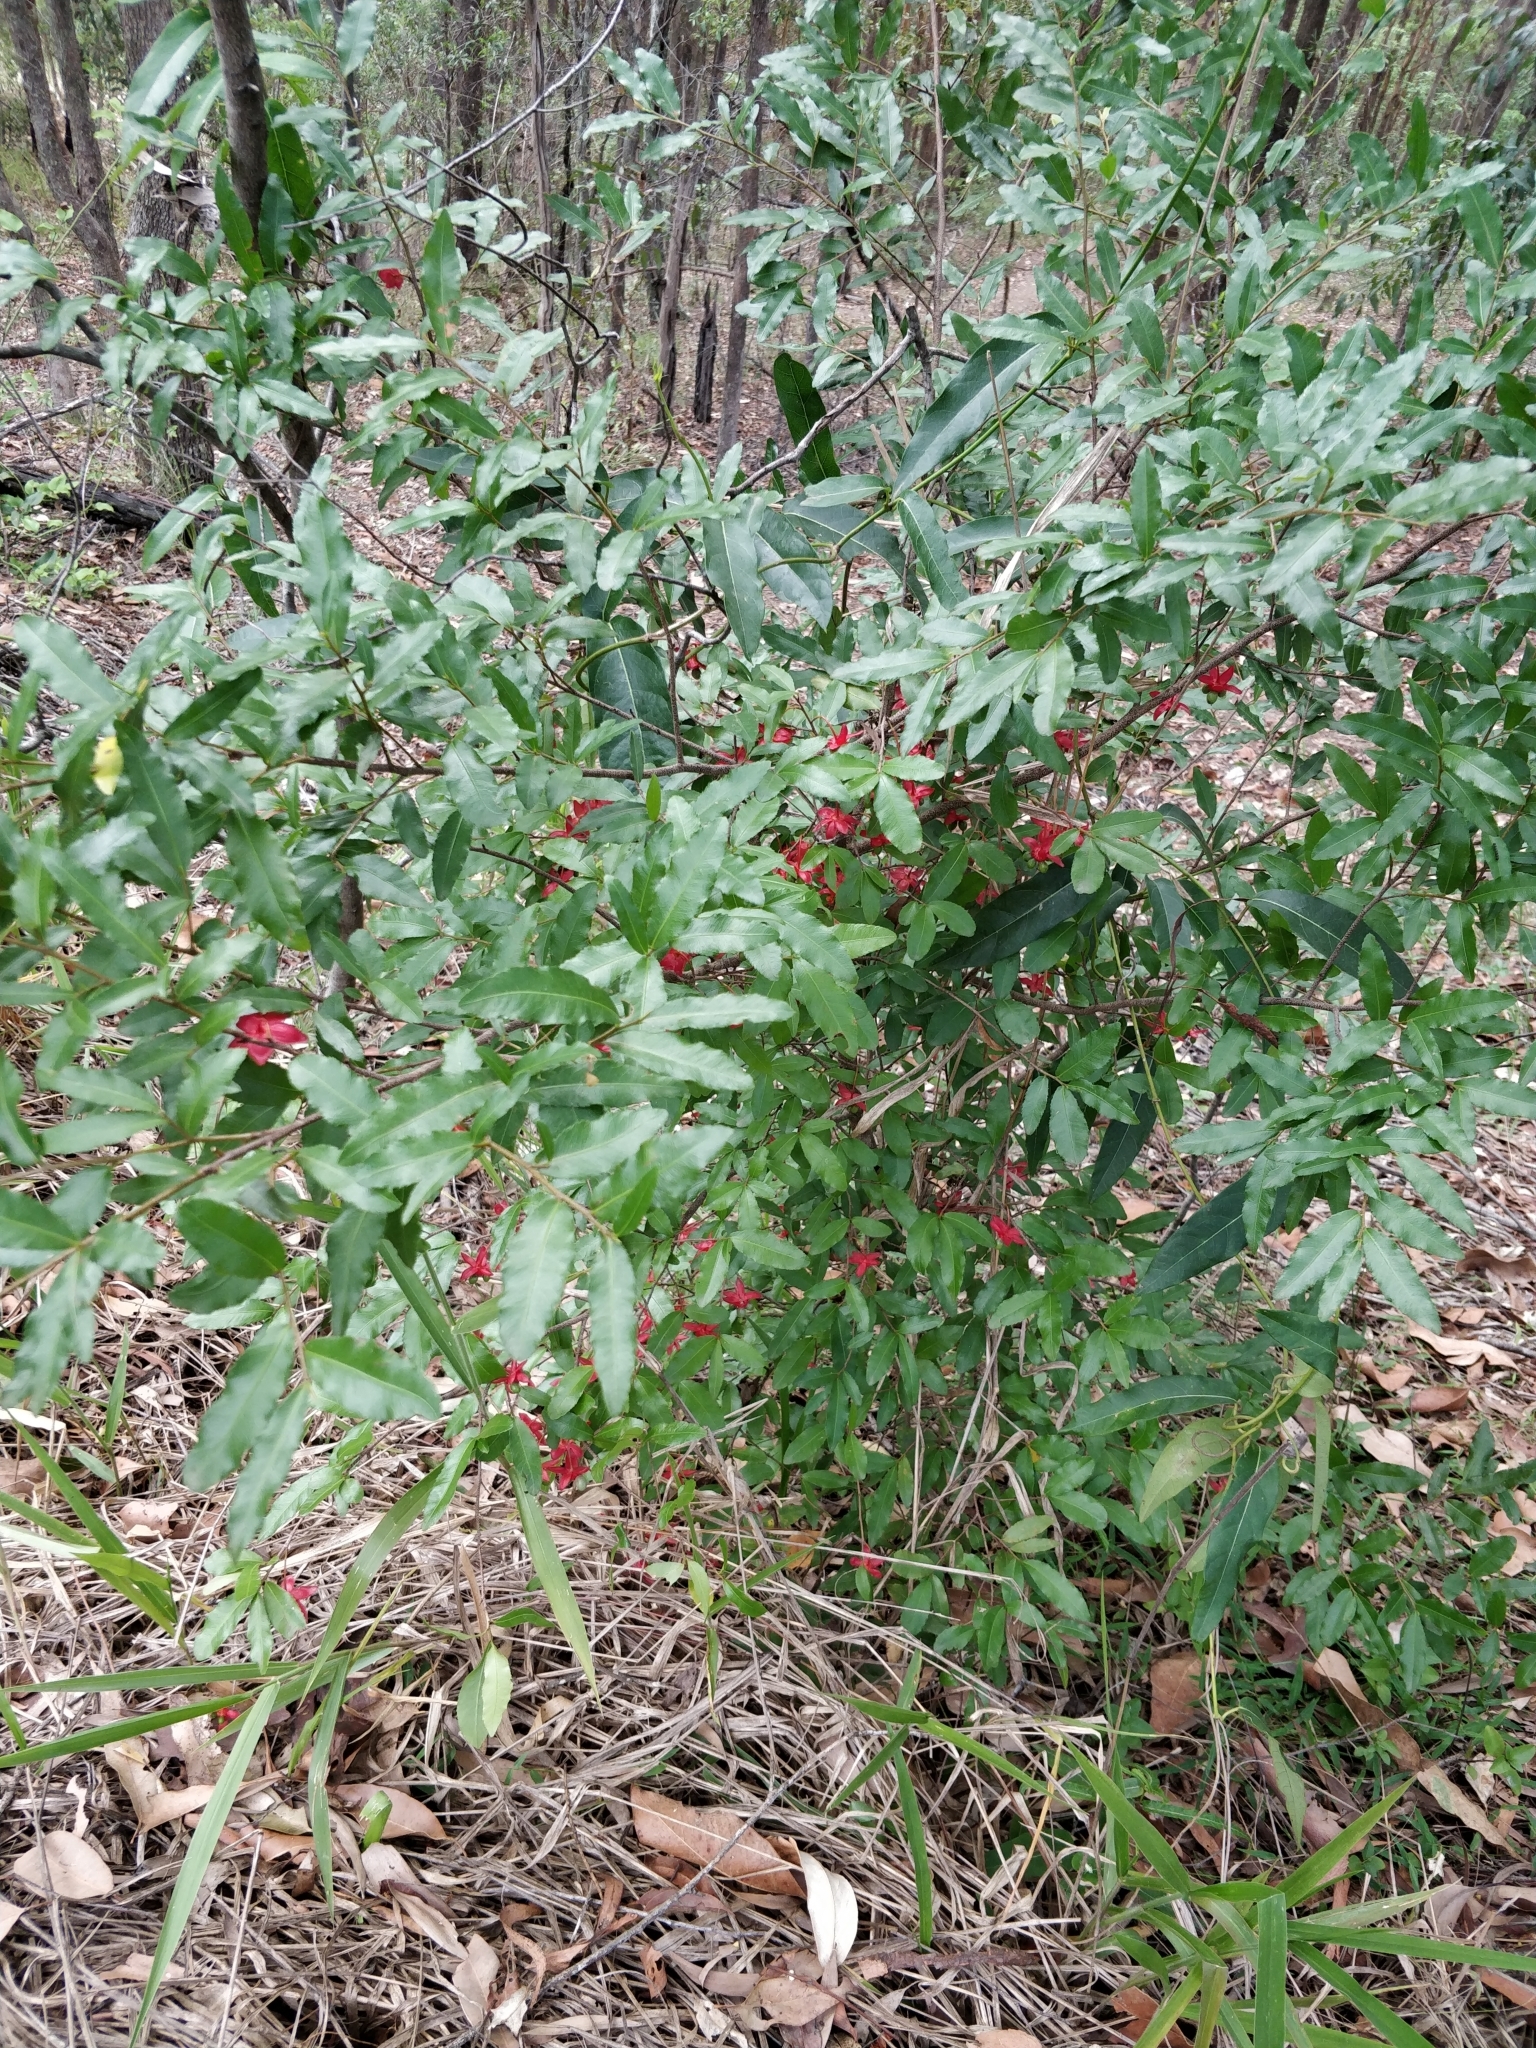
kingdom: Plantae
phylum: Tracheophyta
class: Magnoliopsida
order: Malpighiales
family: Ochnaceae
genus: Ochna
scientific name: Ochna serrulata
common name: Mickey mouse plant
